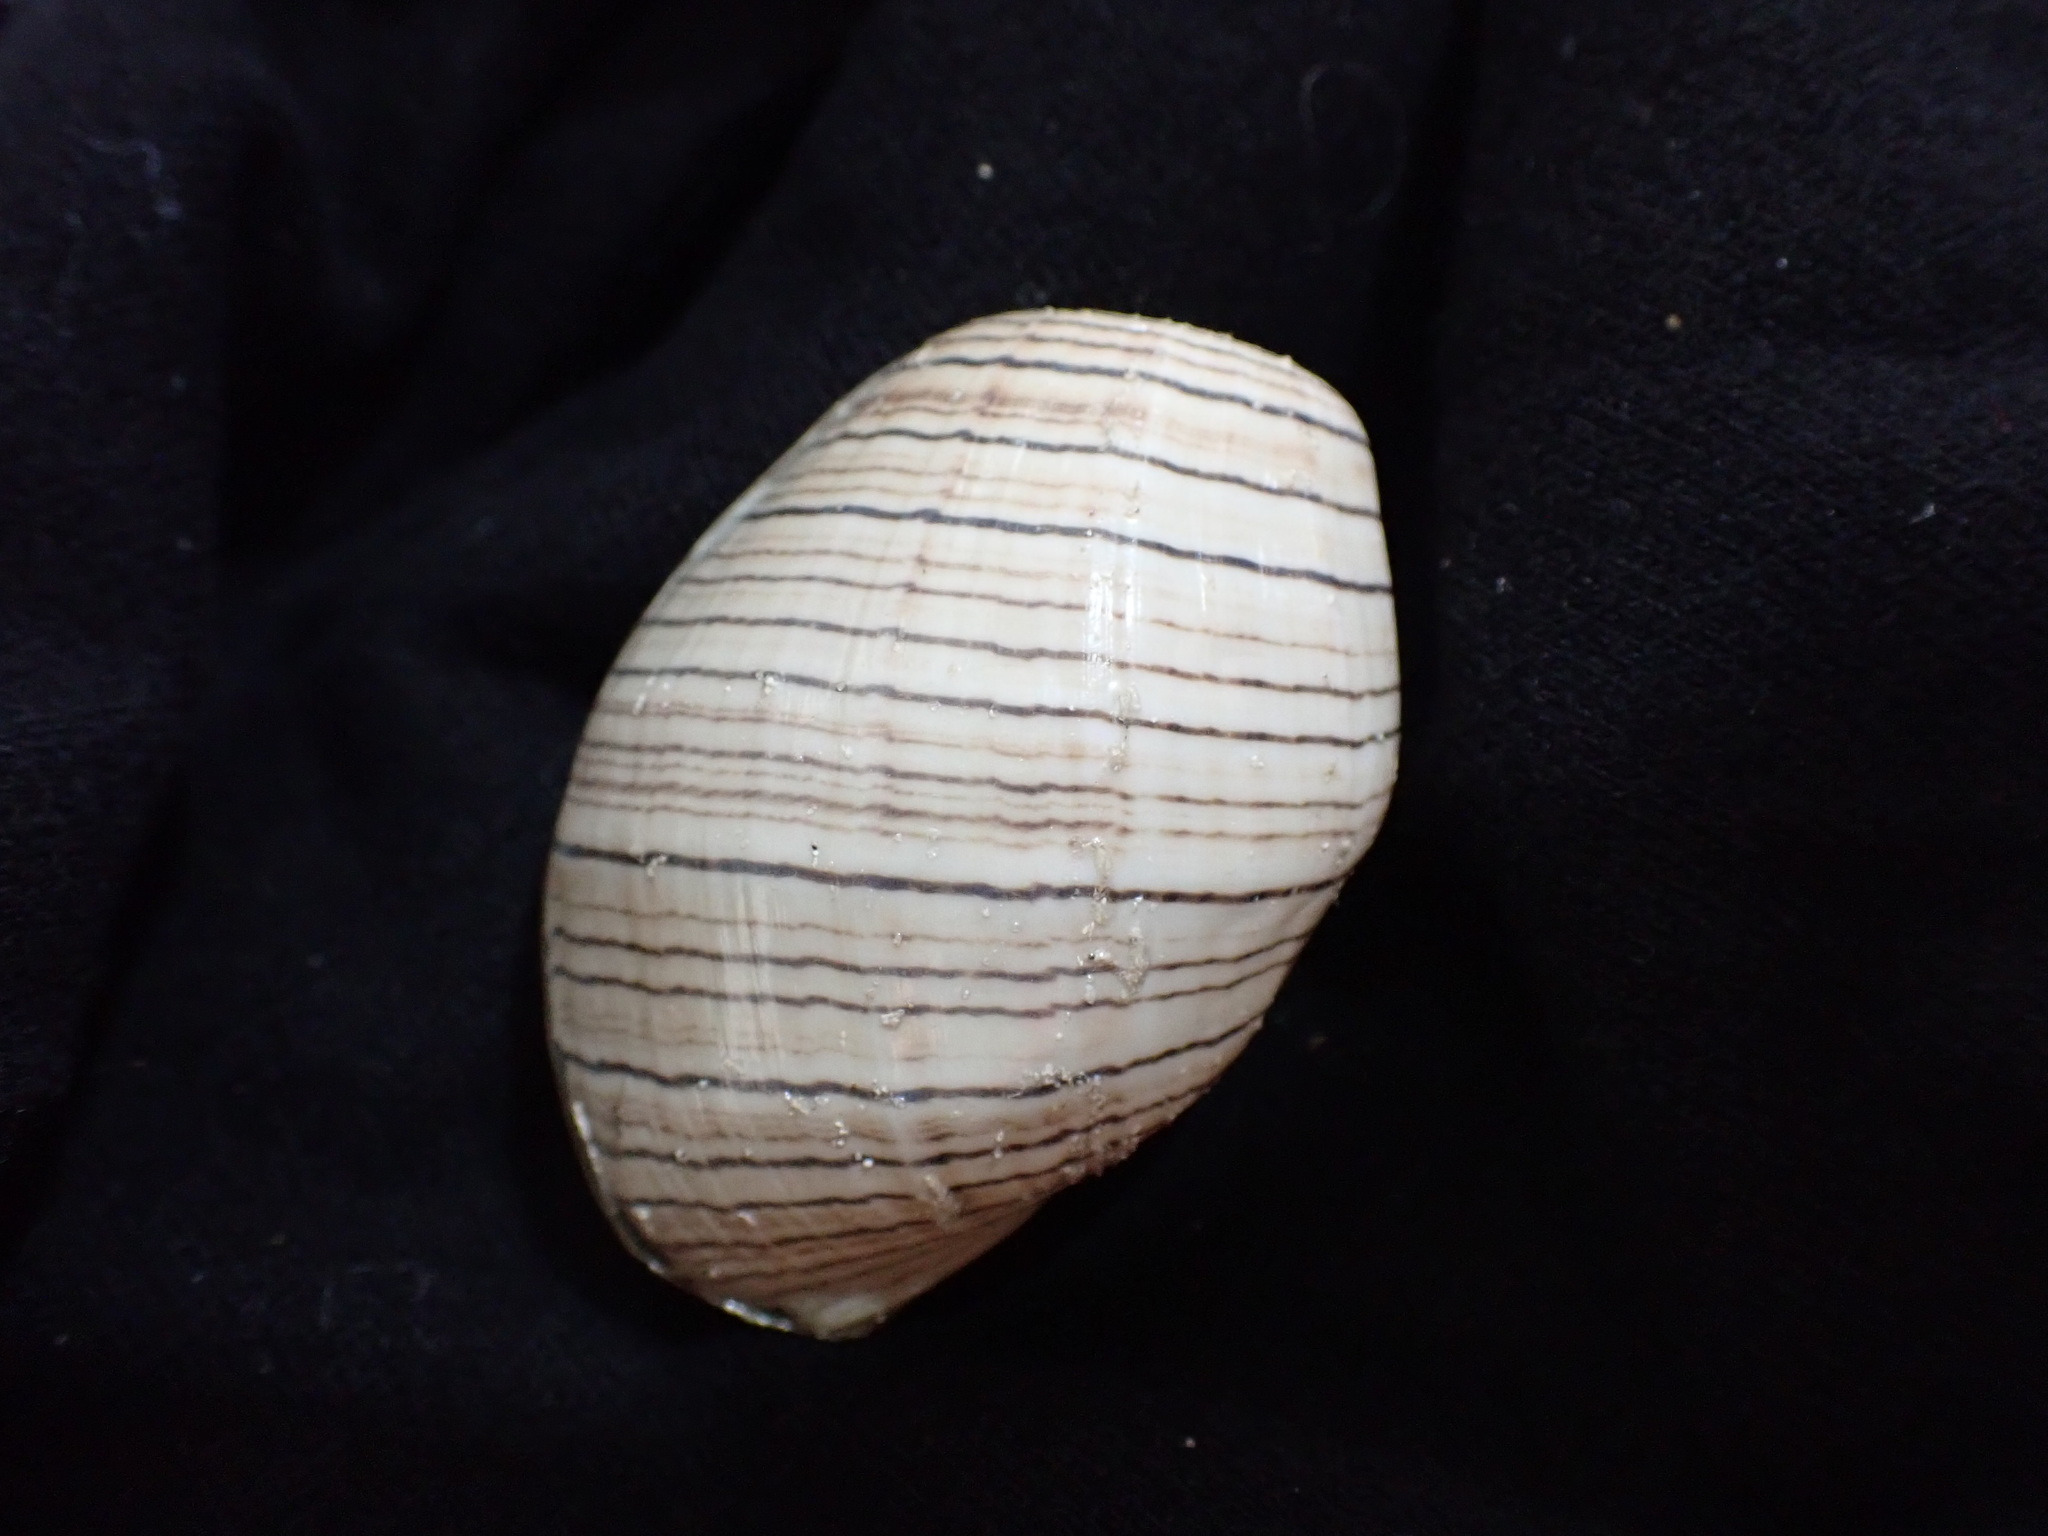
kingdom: Animalia
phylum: Mollusca
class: Gastropoda
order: Cephalaspidea
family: Aplustridae
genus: Hydatina
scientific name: Hydatina physis
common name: Brown-line paperbubble
